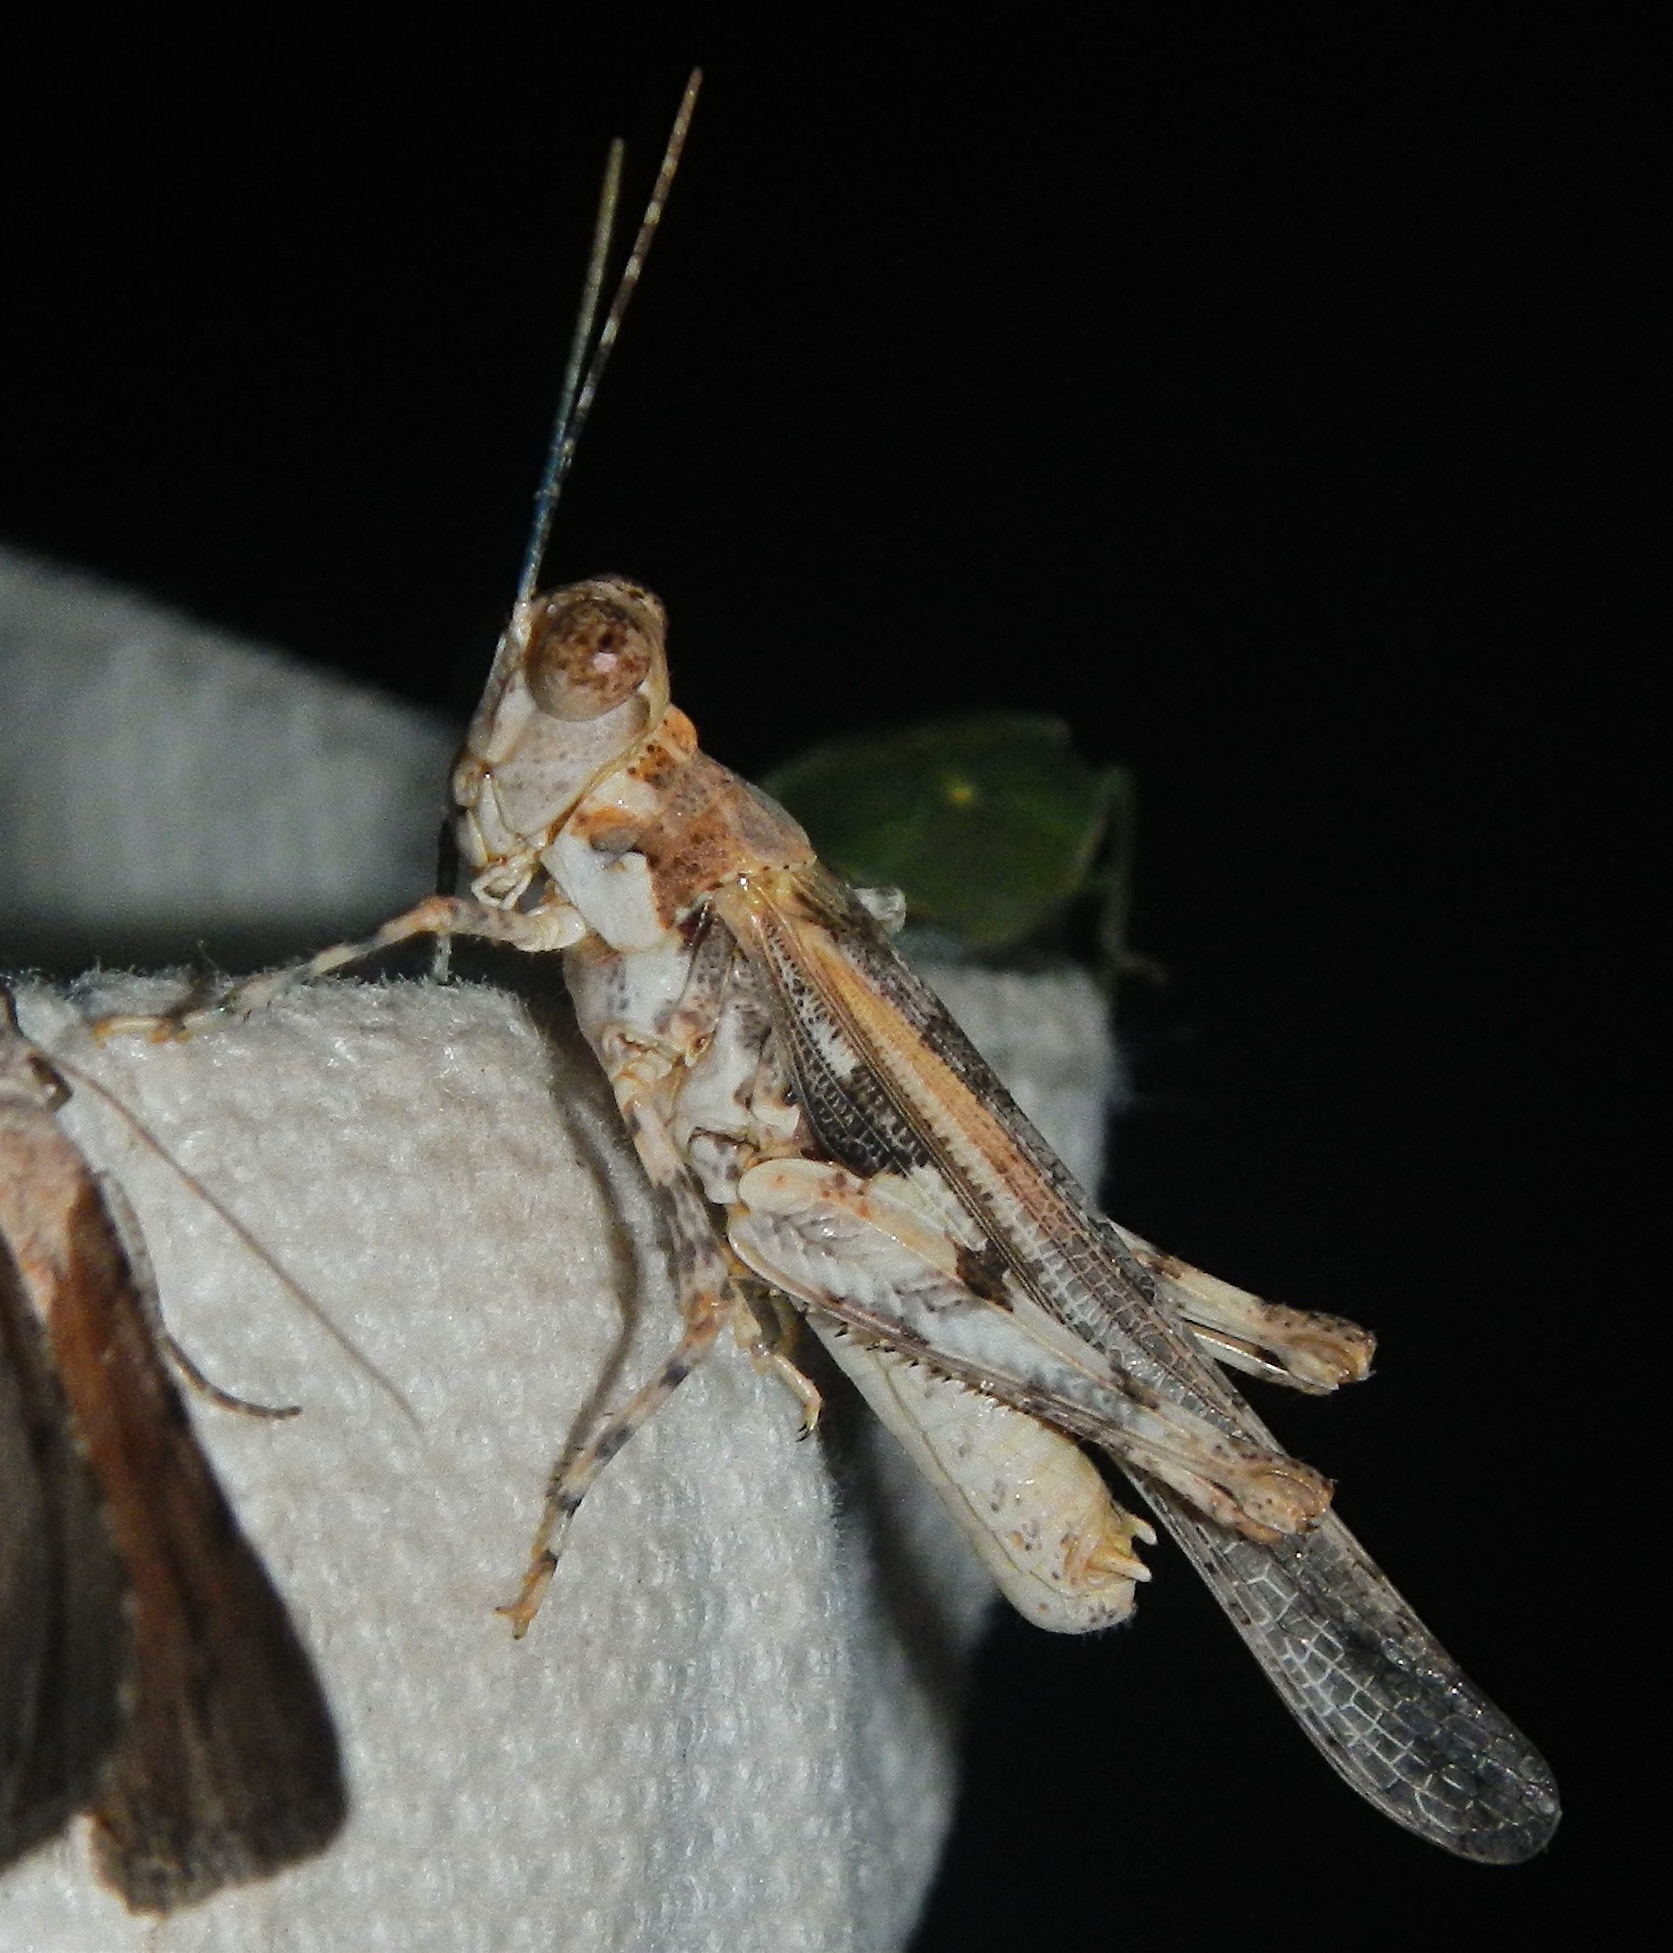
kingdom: Animalia
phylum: Arthropoda
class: Insecta
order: Orthoptera
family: Acrididae
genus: Derotmema
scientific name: Derotmema delicatulum
